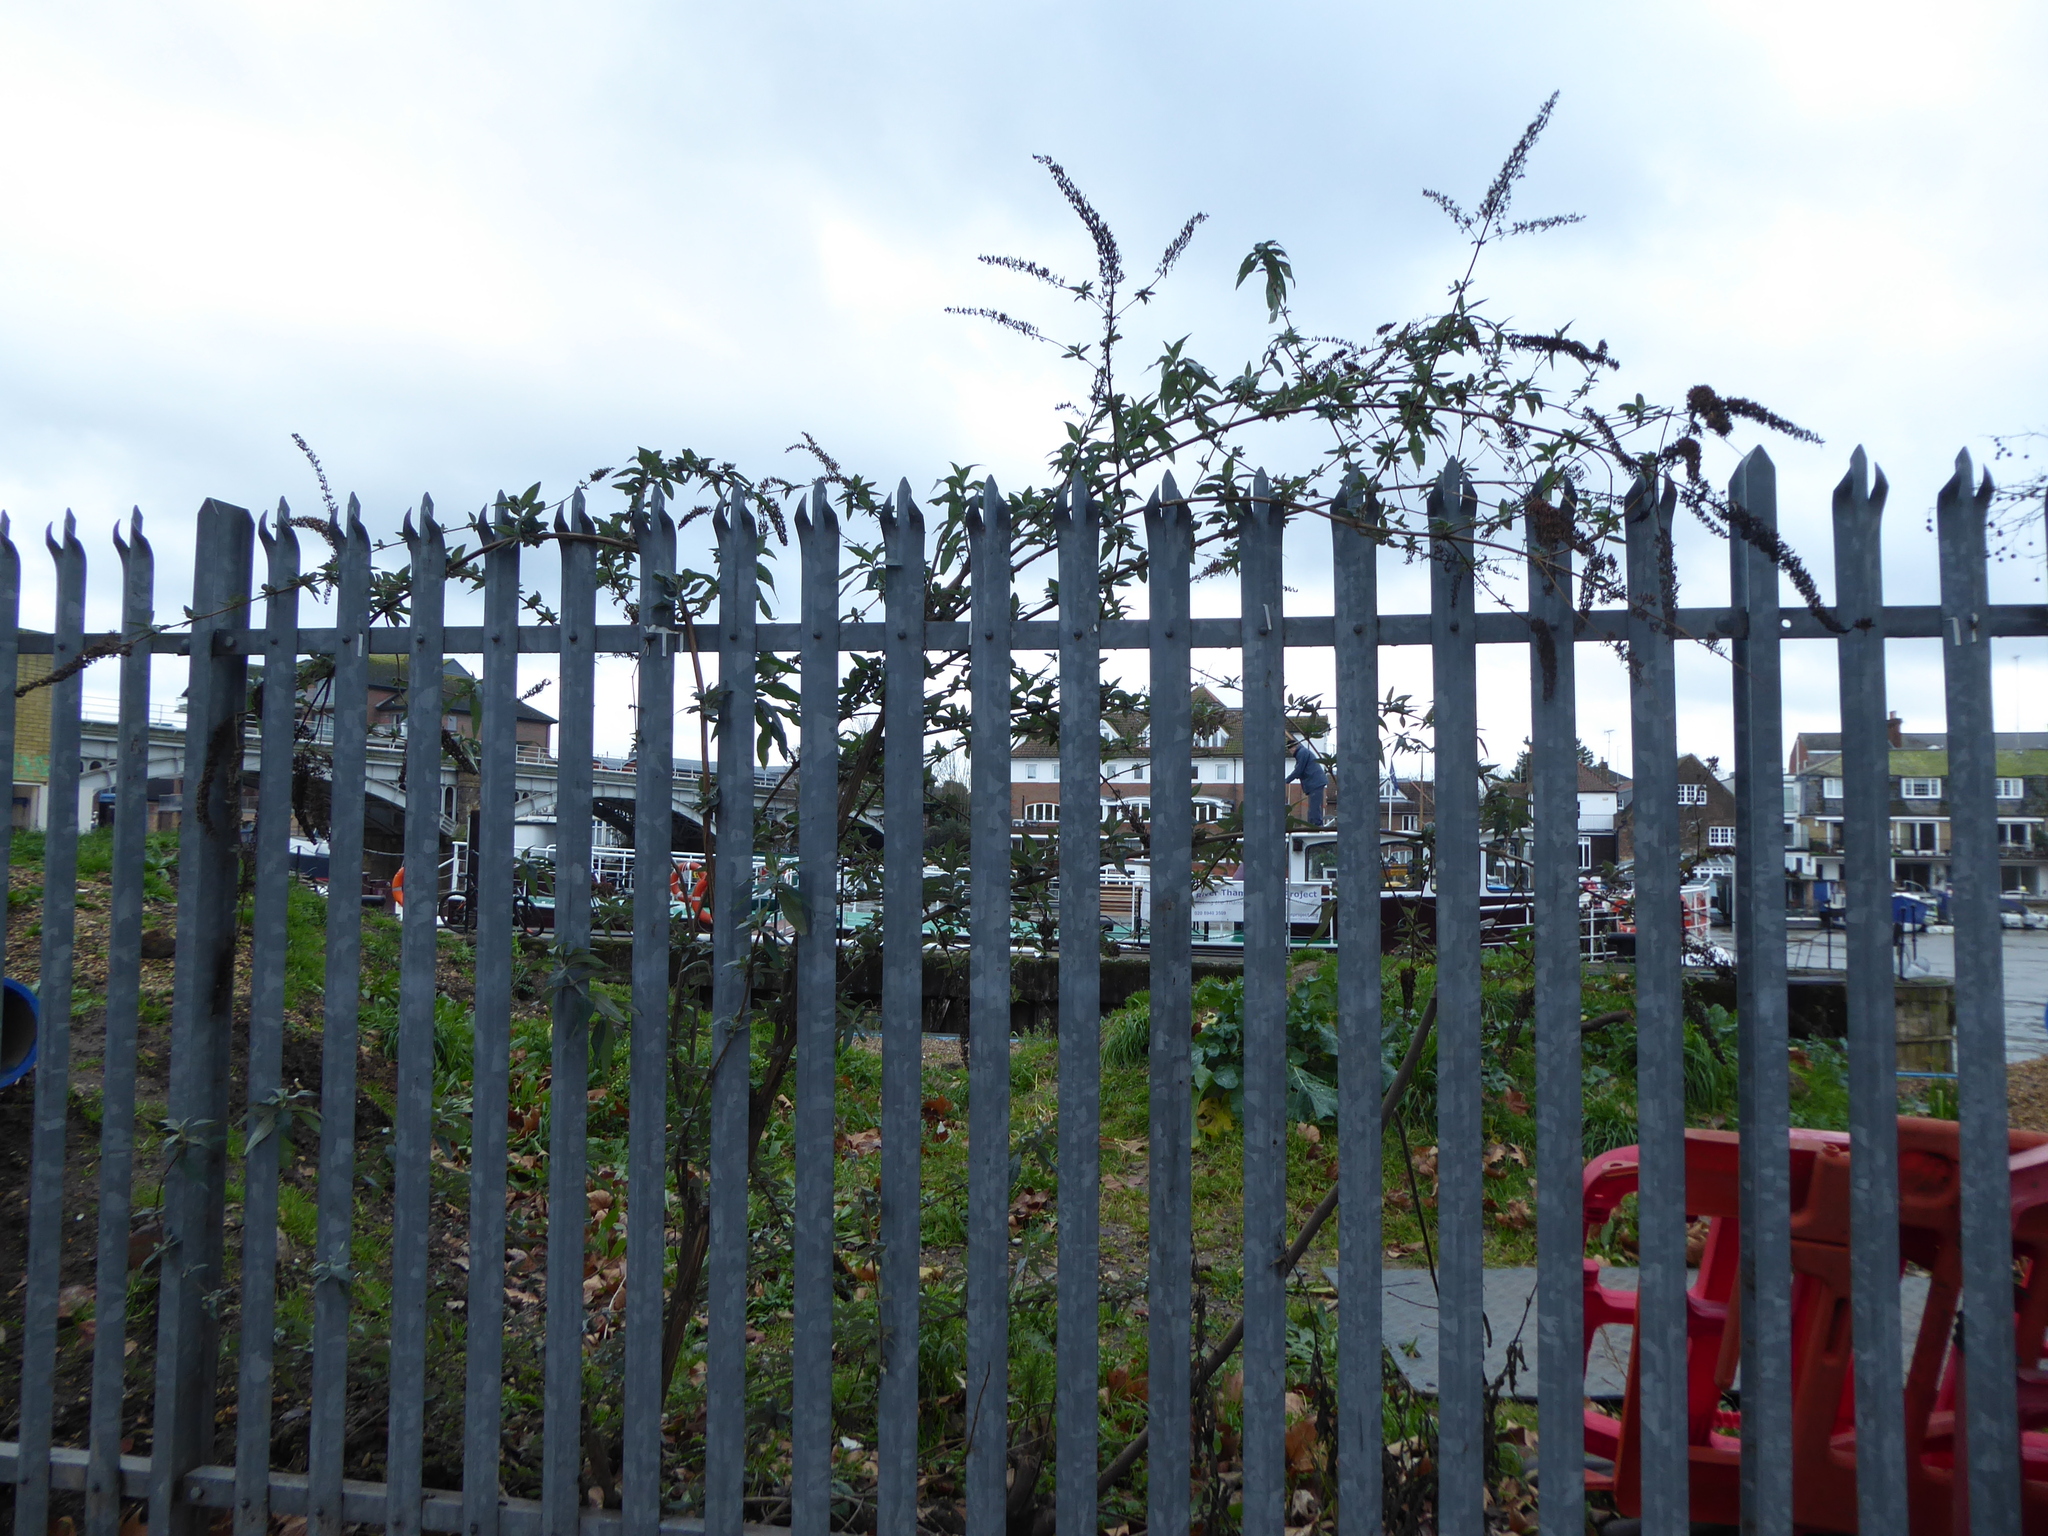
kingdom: Plantae
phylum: Tracheophyta
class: Magnoliopsida
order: Lamiales
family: Scrophulariaceae
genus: Buddleja
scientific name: Buddleja davidii
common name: Butterfly-bush
